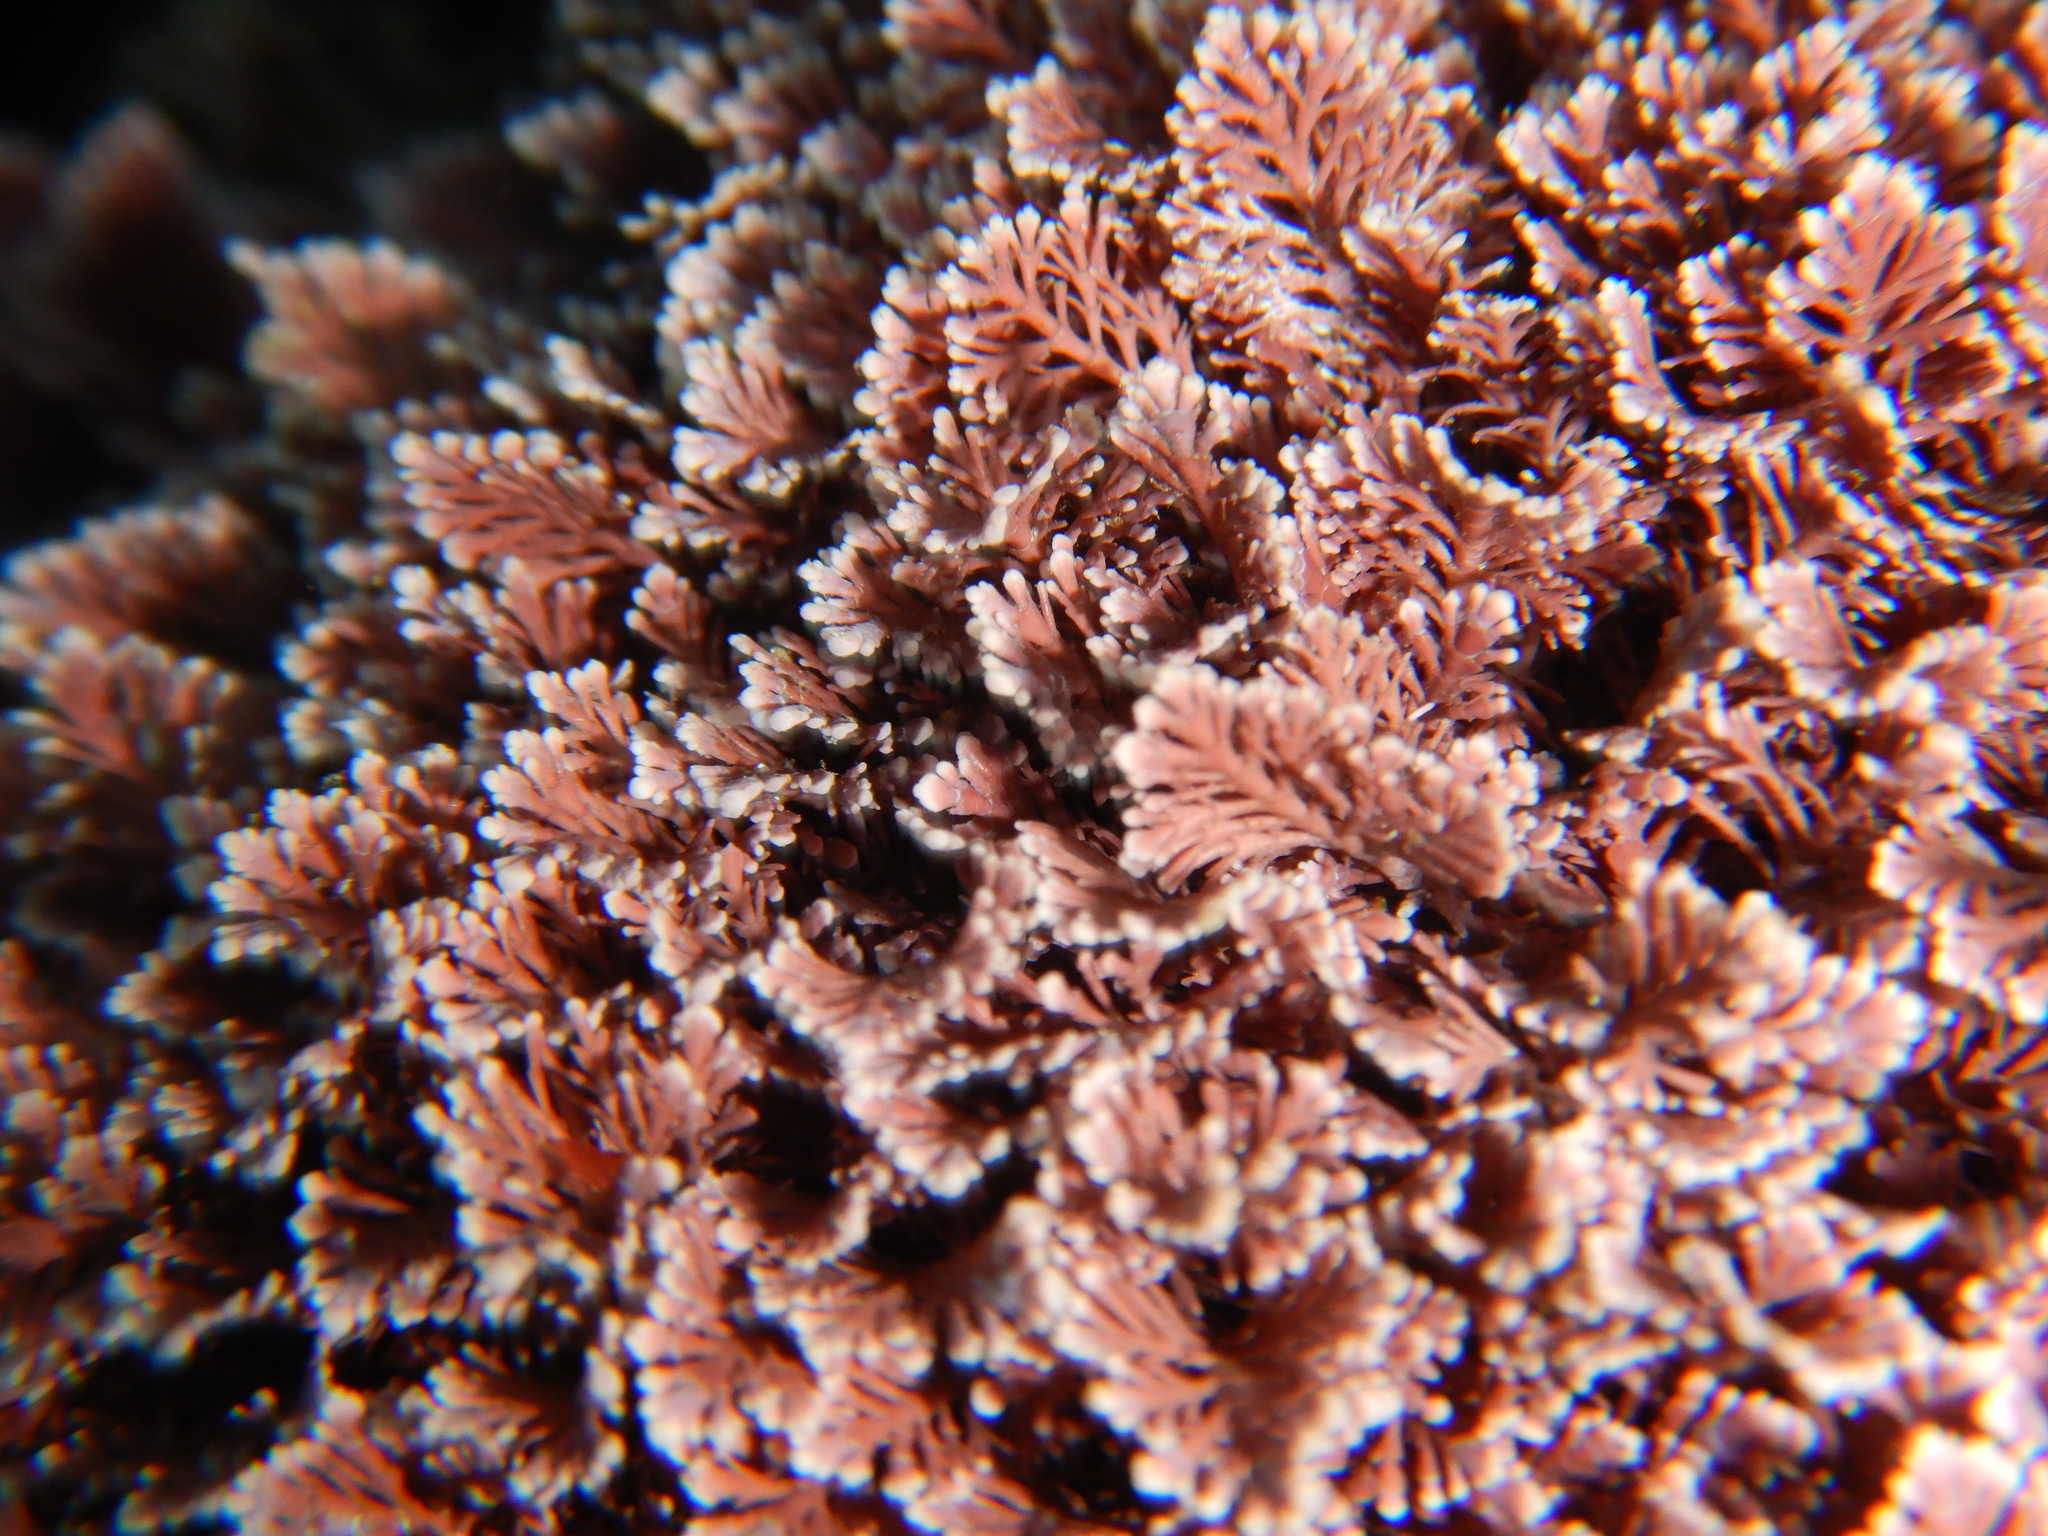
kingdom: Plantae
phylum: Rhodophyta
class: Florideophyceae
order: Corallinales
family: Corallinaceae
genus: Corallina
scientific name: Corallina
